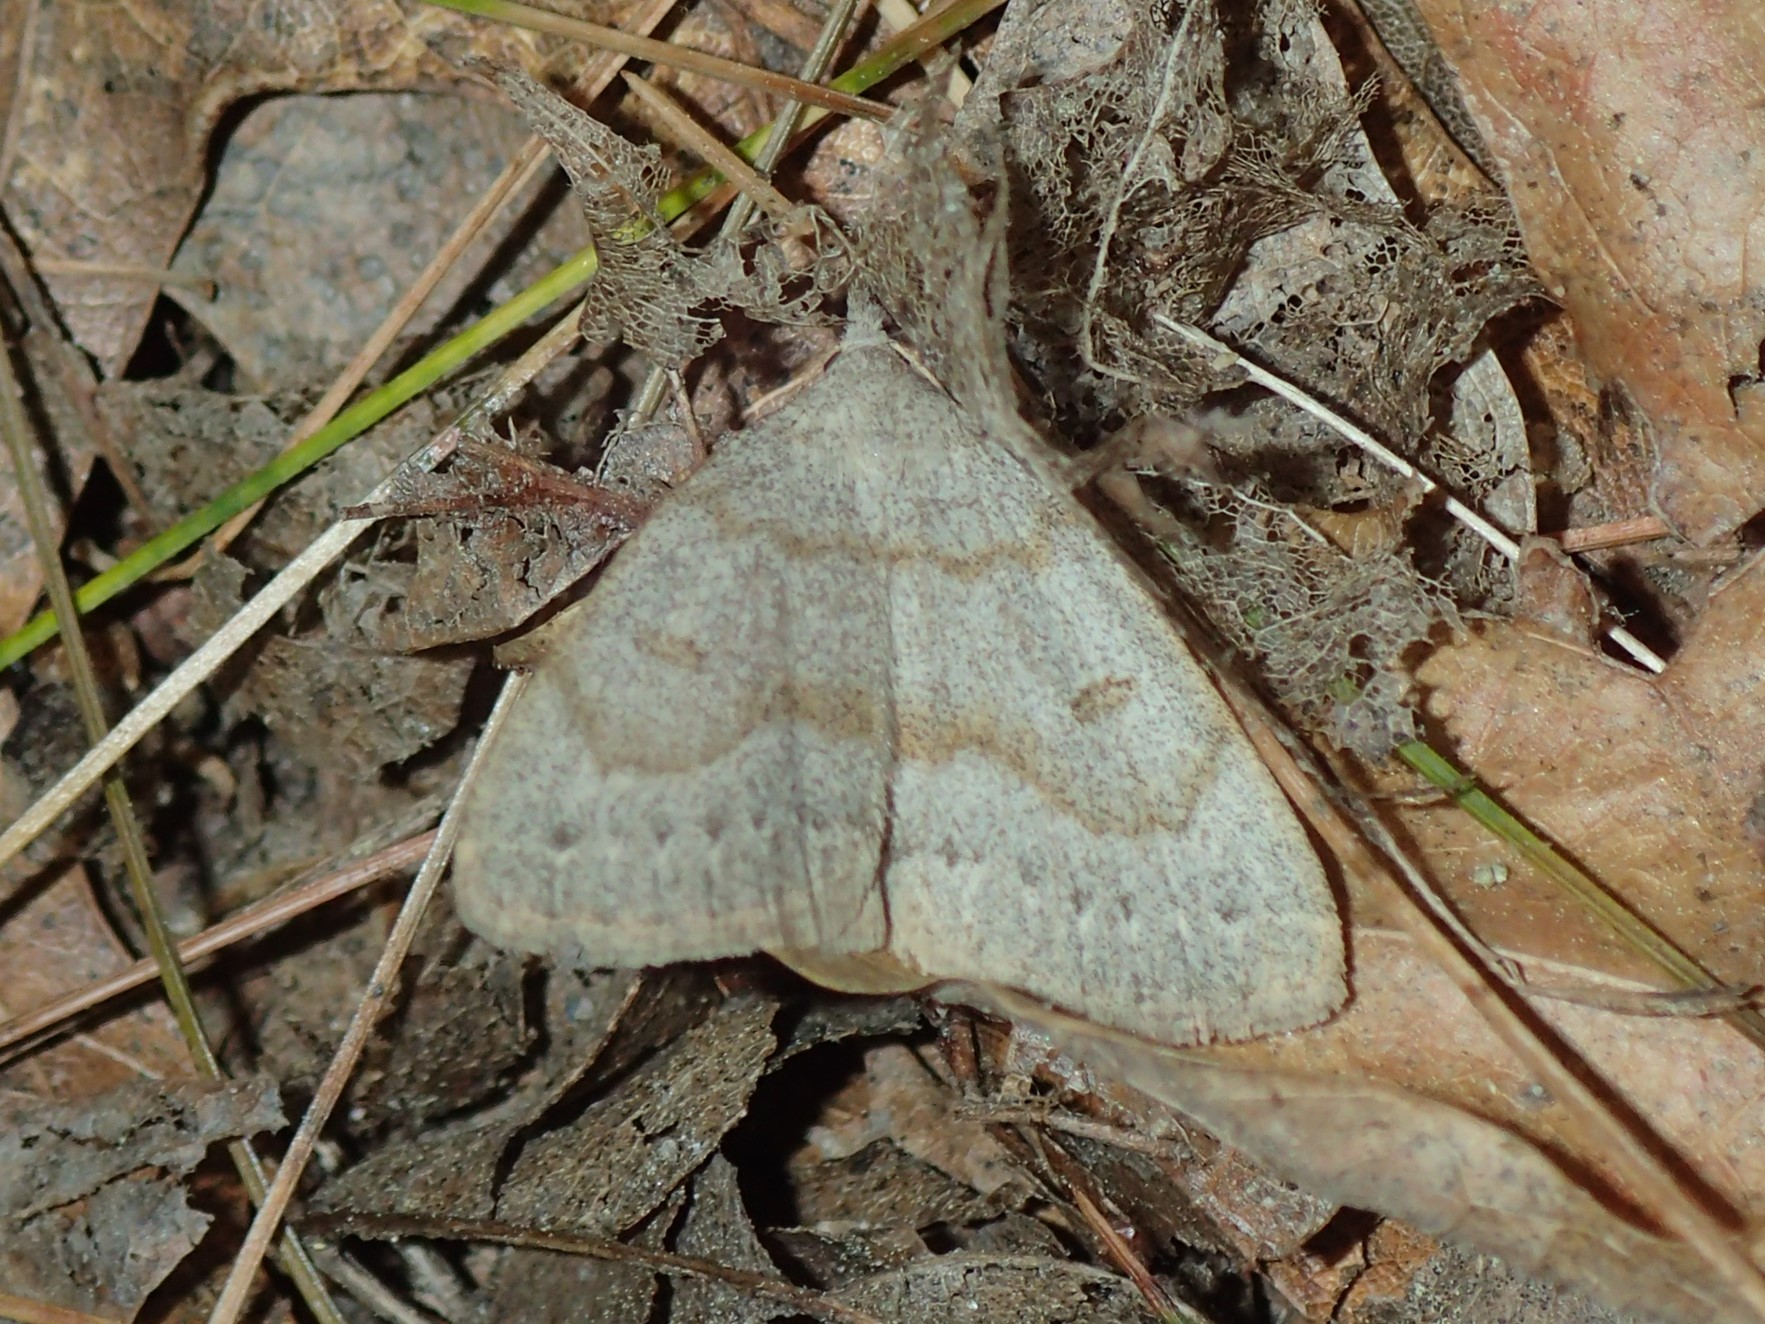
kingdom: Animalia
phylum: Arthropoda
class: Insecta
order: Lepidoptera
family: Erebidae
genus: Macrochilo
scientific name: Macrochilo morbidalis
